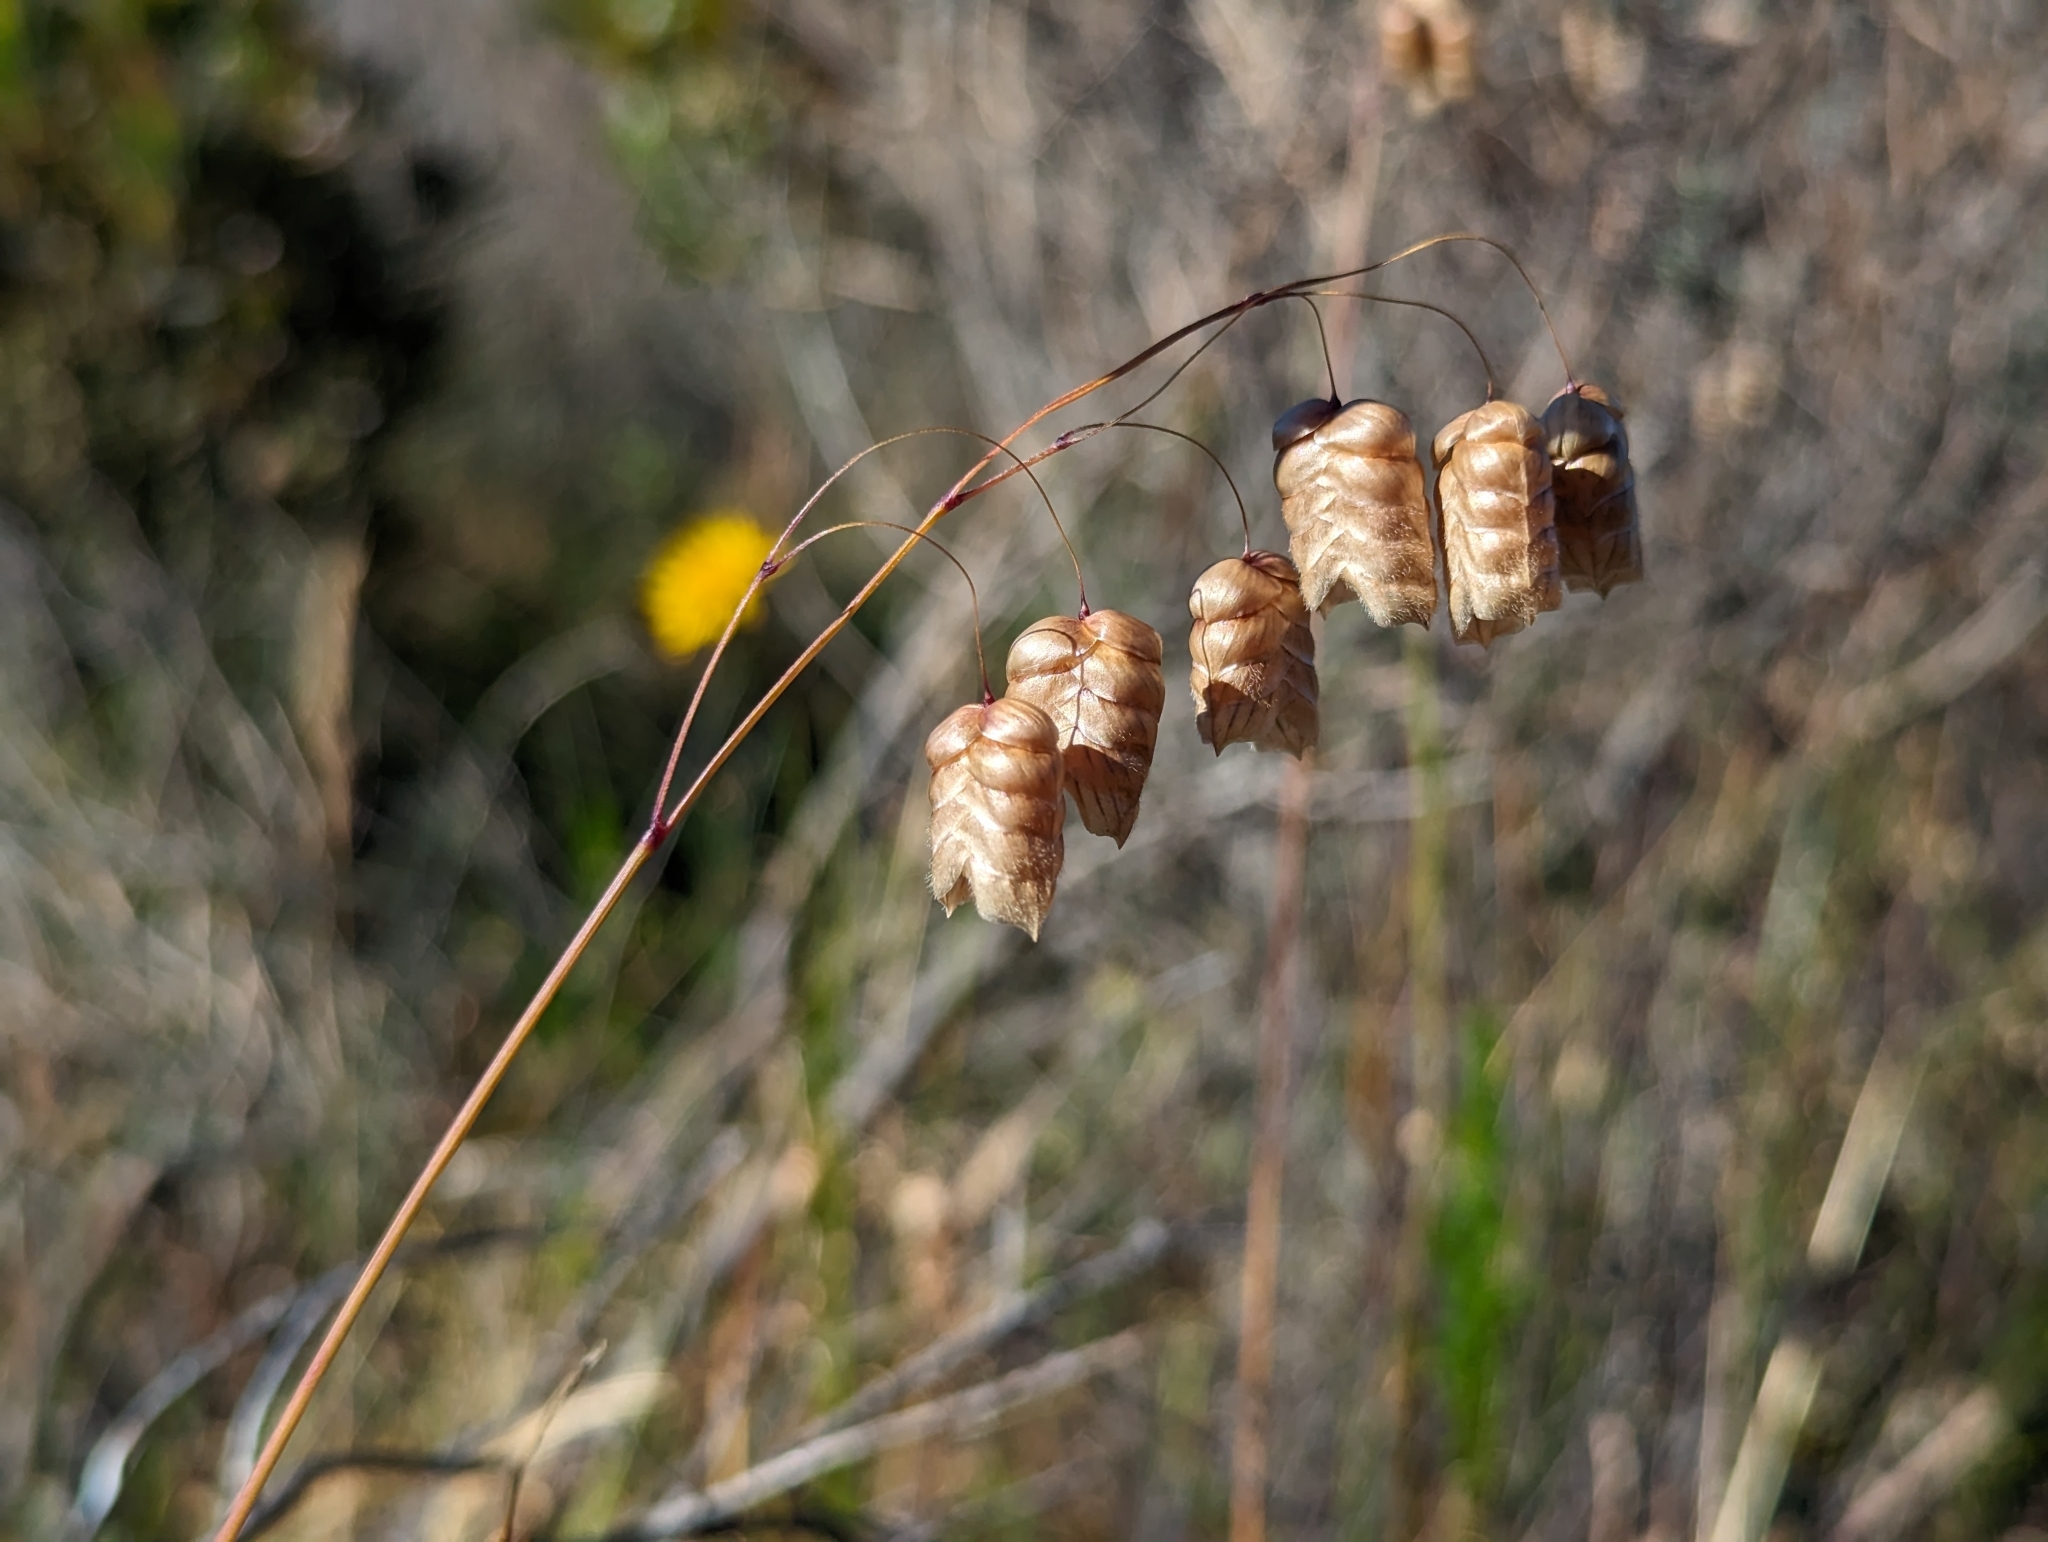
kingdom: Plantae
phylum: Tracheophyta
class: Liliopsida
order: Poales
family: Poaceae
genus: Briza
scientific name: Briza maxima
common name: Big quakinggrass
